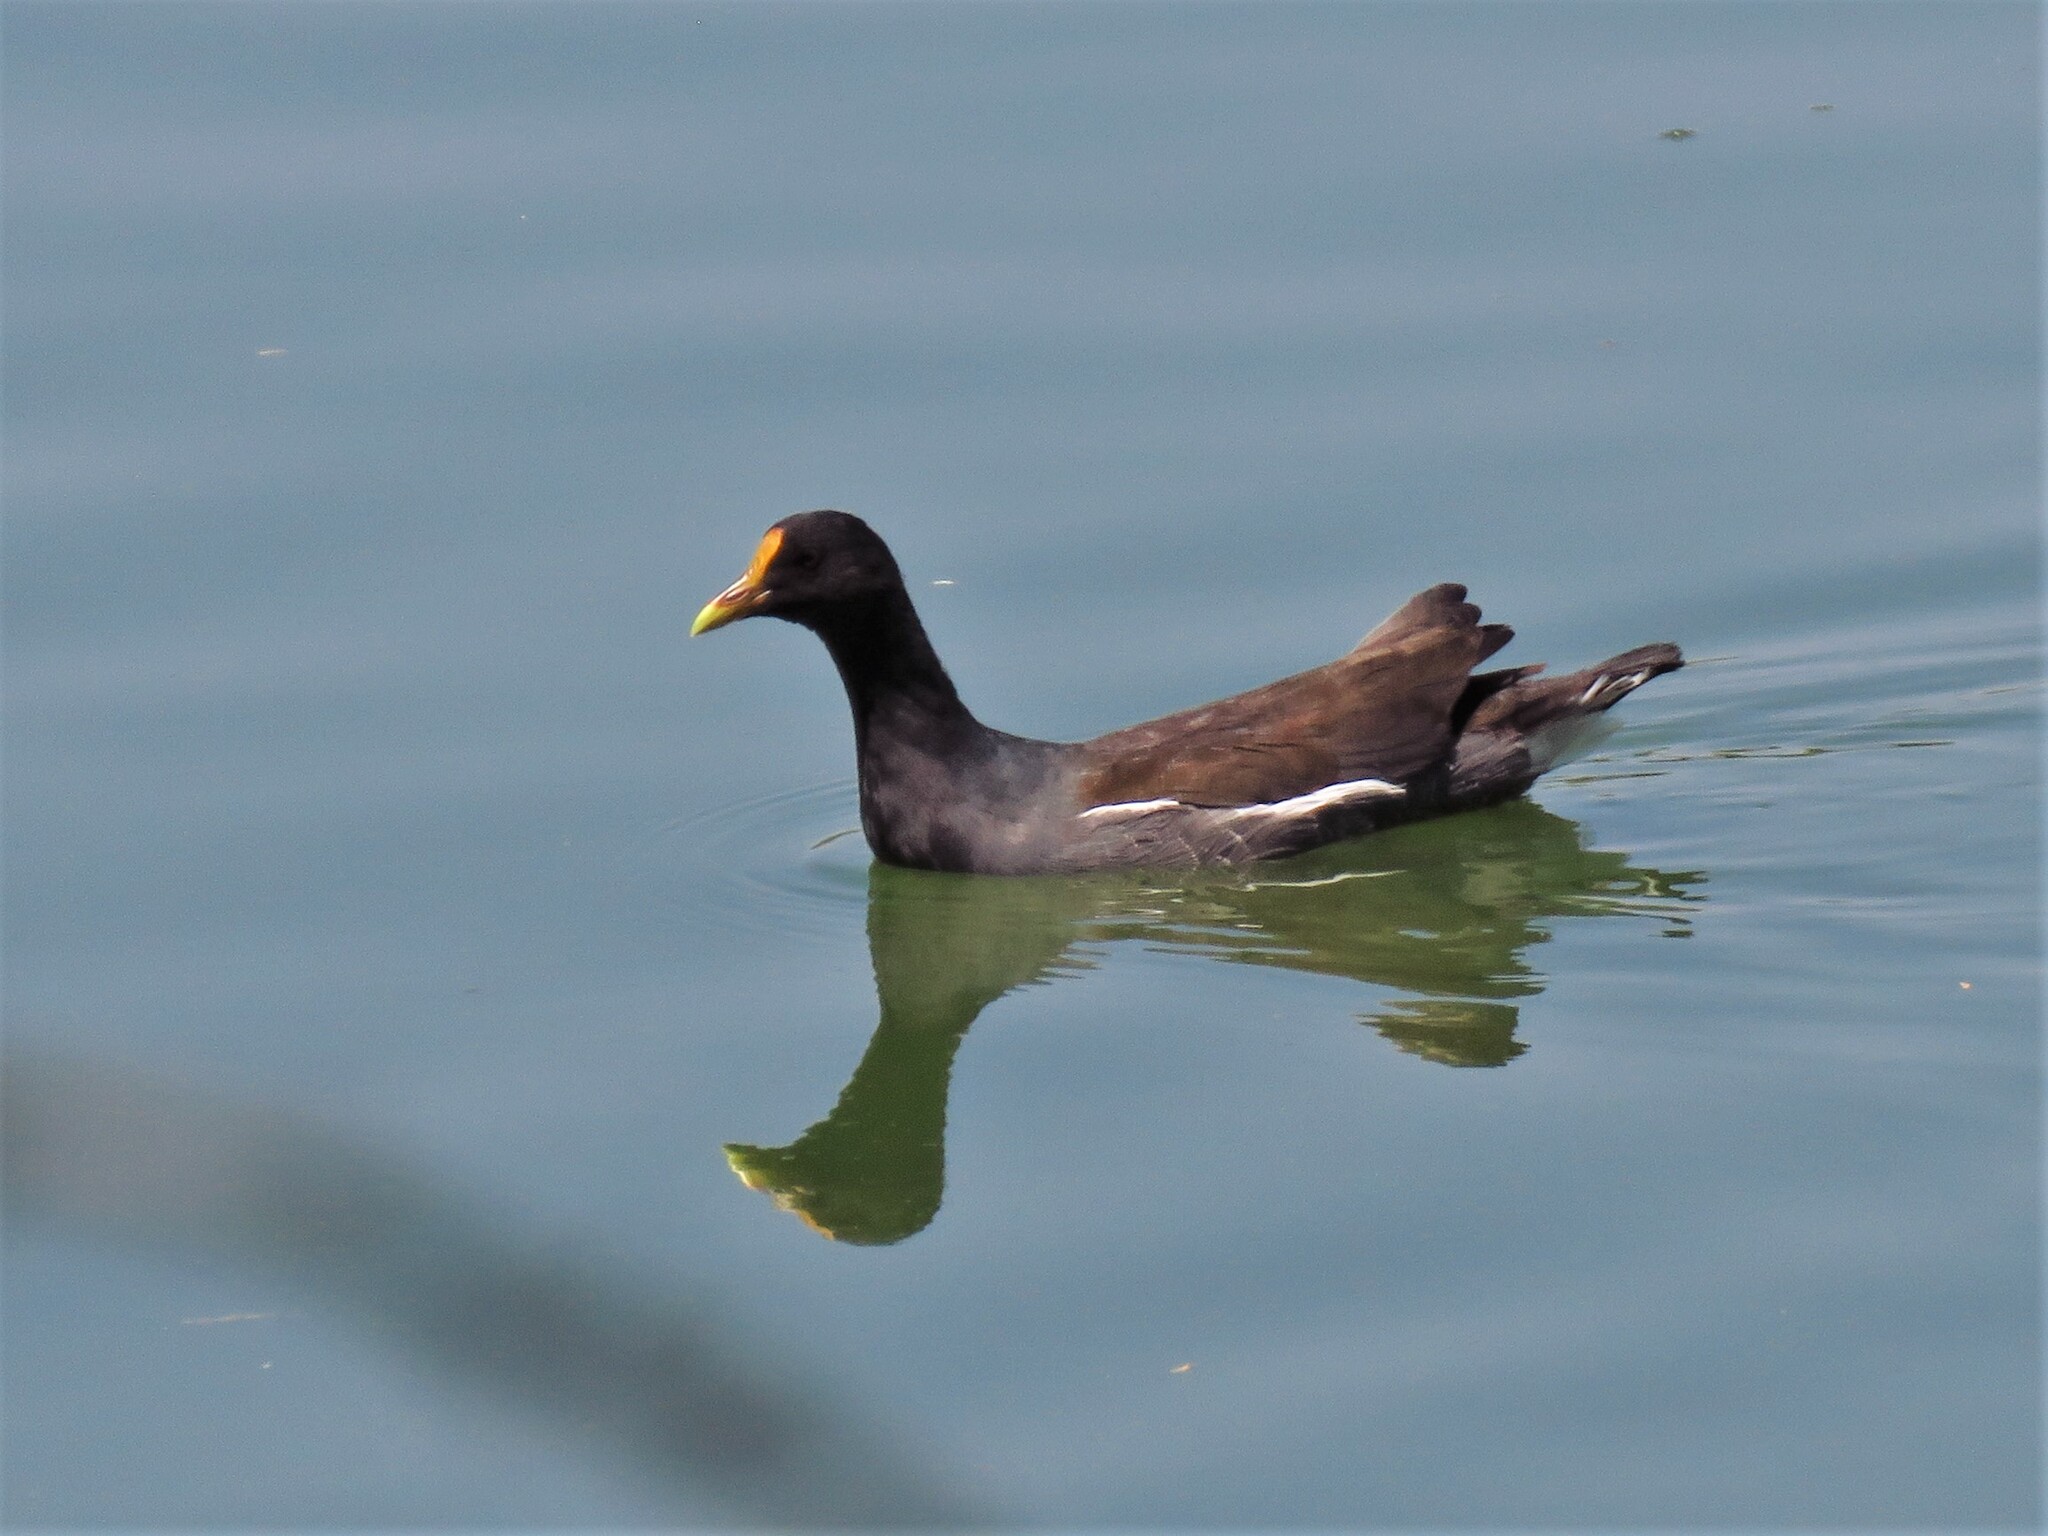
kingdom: Animalia
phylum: Chordata
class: Aves
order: Gruiformes
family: Rallidae
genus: Gallinula
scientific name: Gallinula chloropus
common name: Common moorhen
